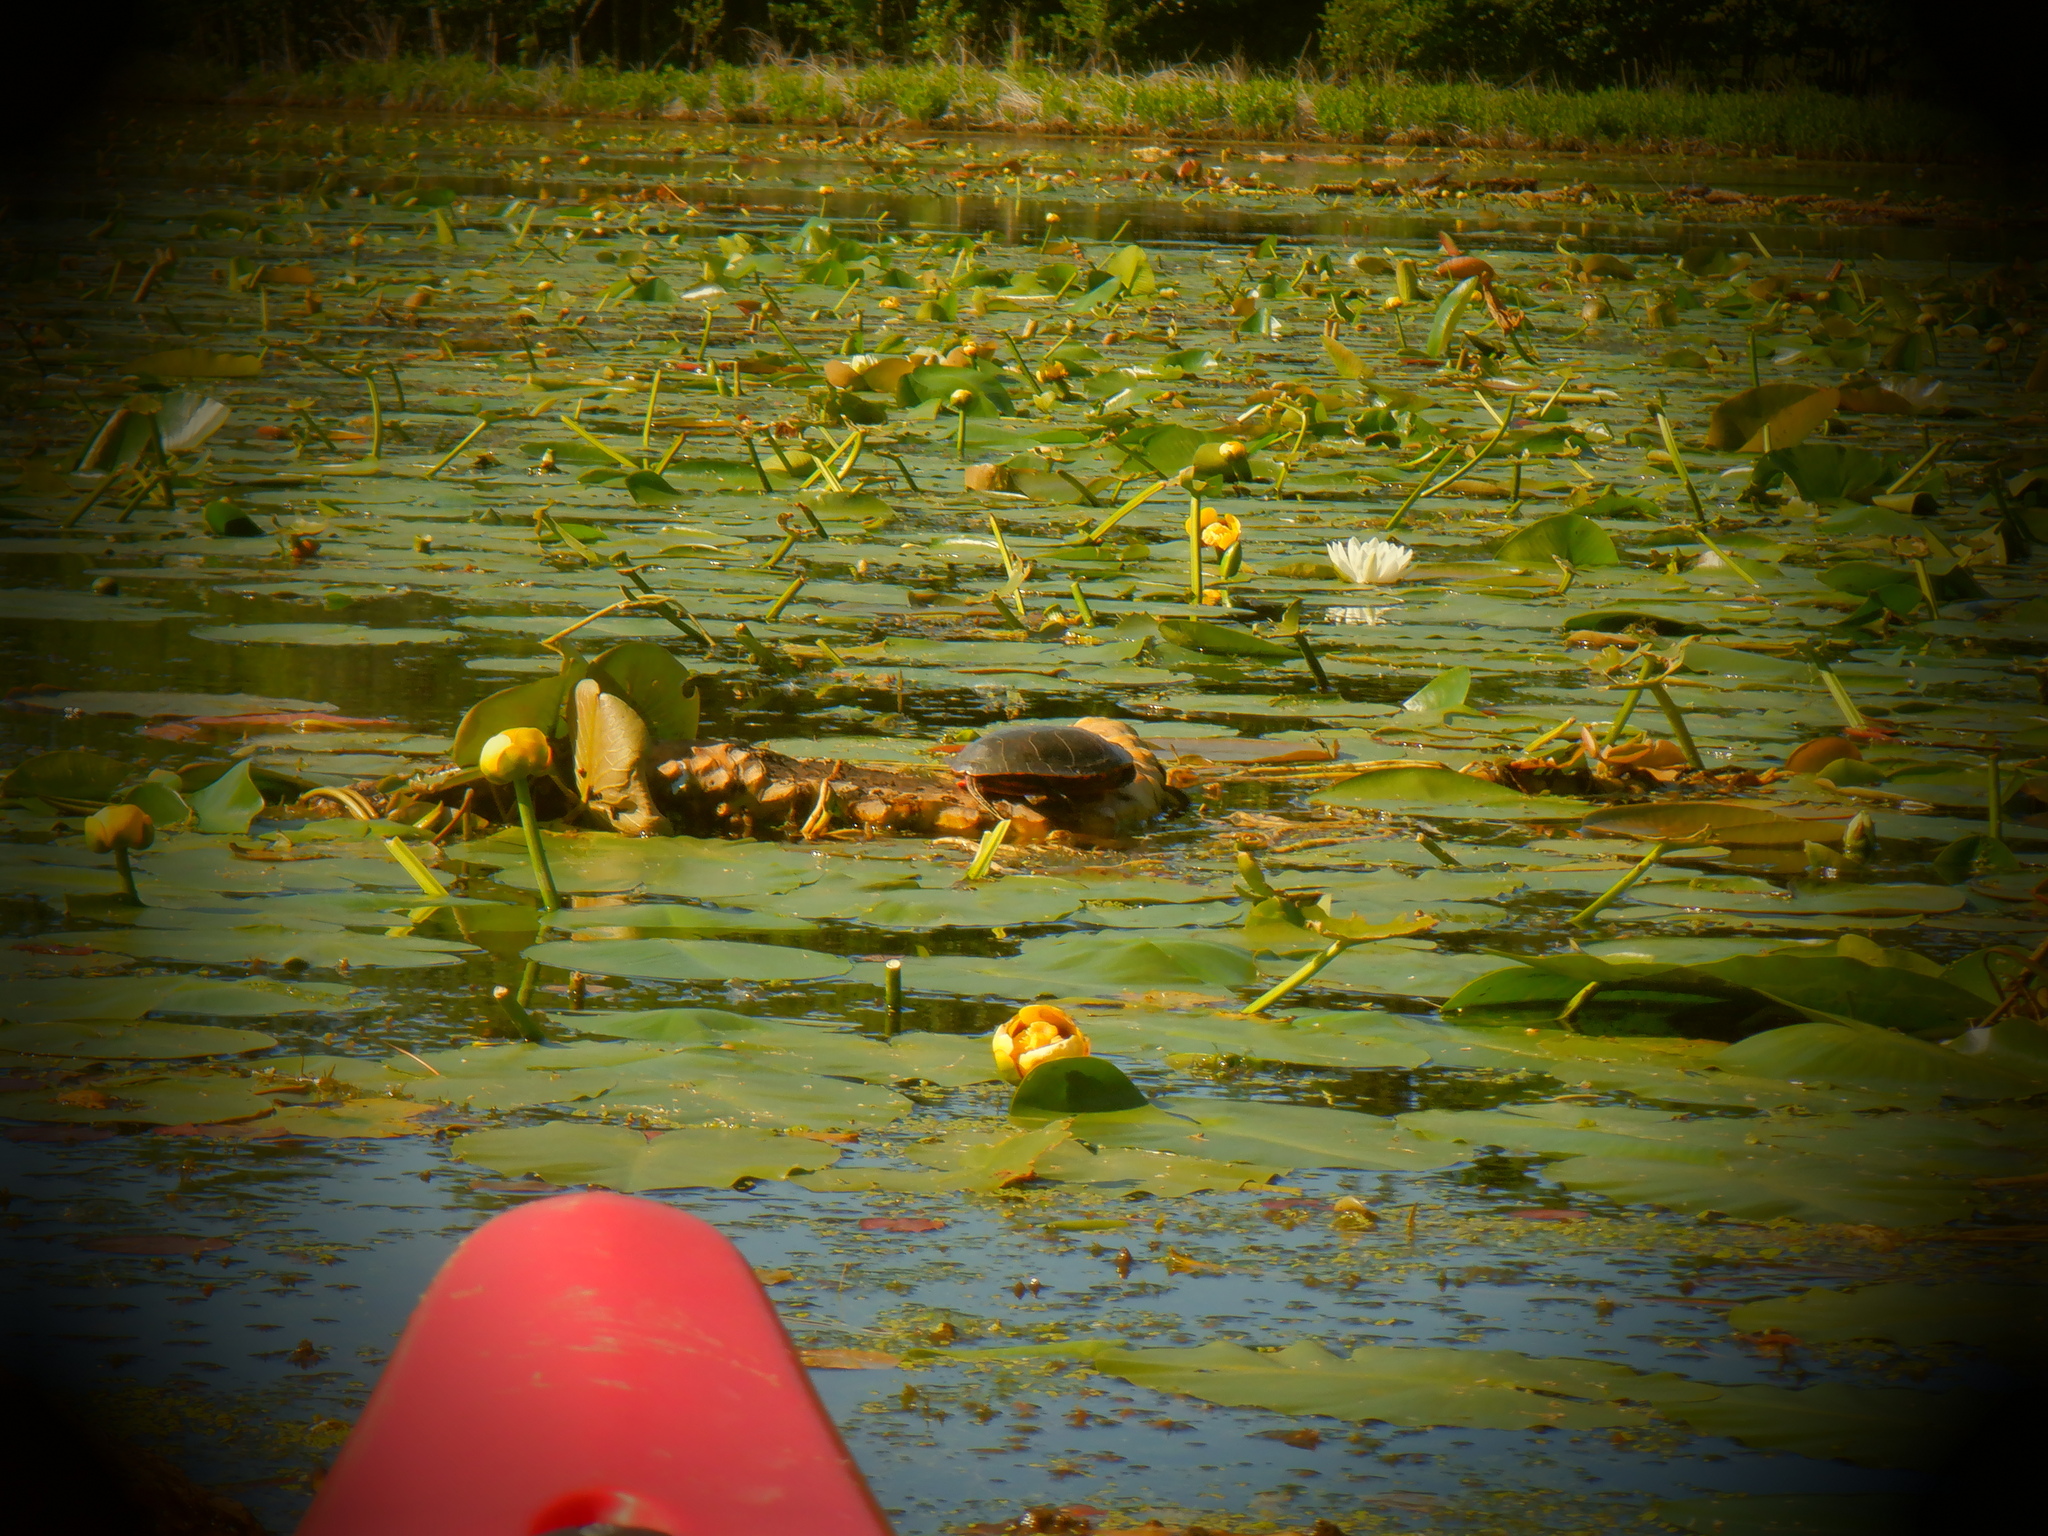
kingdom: Animalia
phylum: Chordata
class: Testudines
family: Emydidae
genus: Chrysemys
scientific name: Chrysemys picta
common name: Painted turtle
